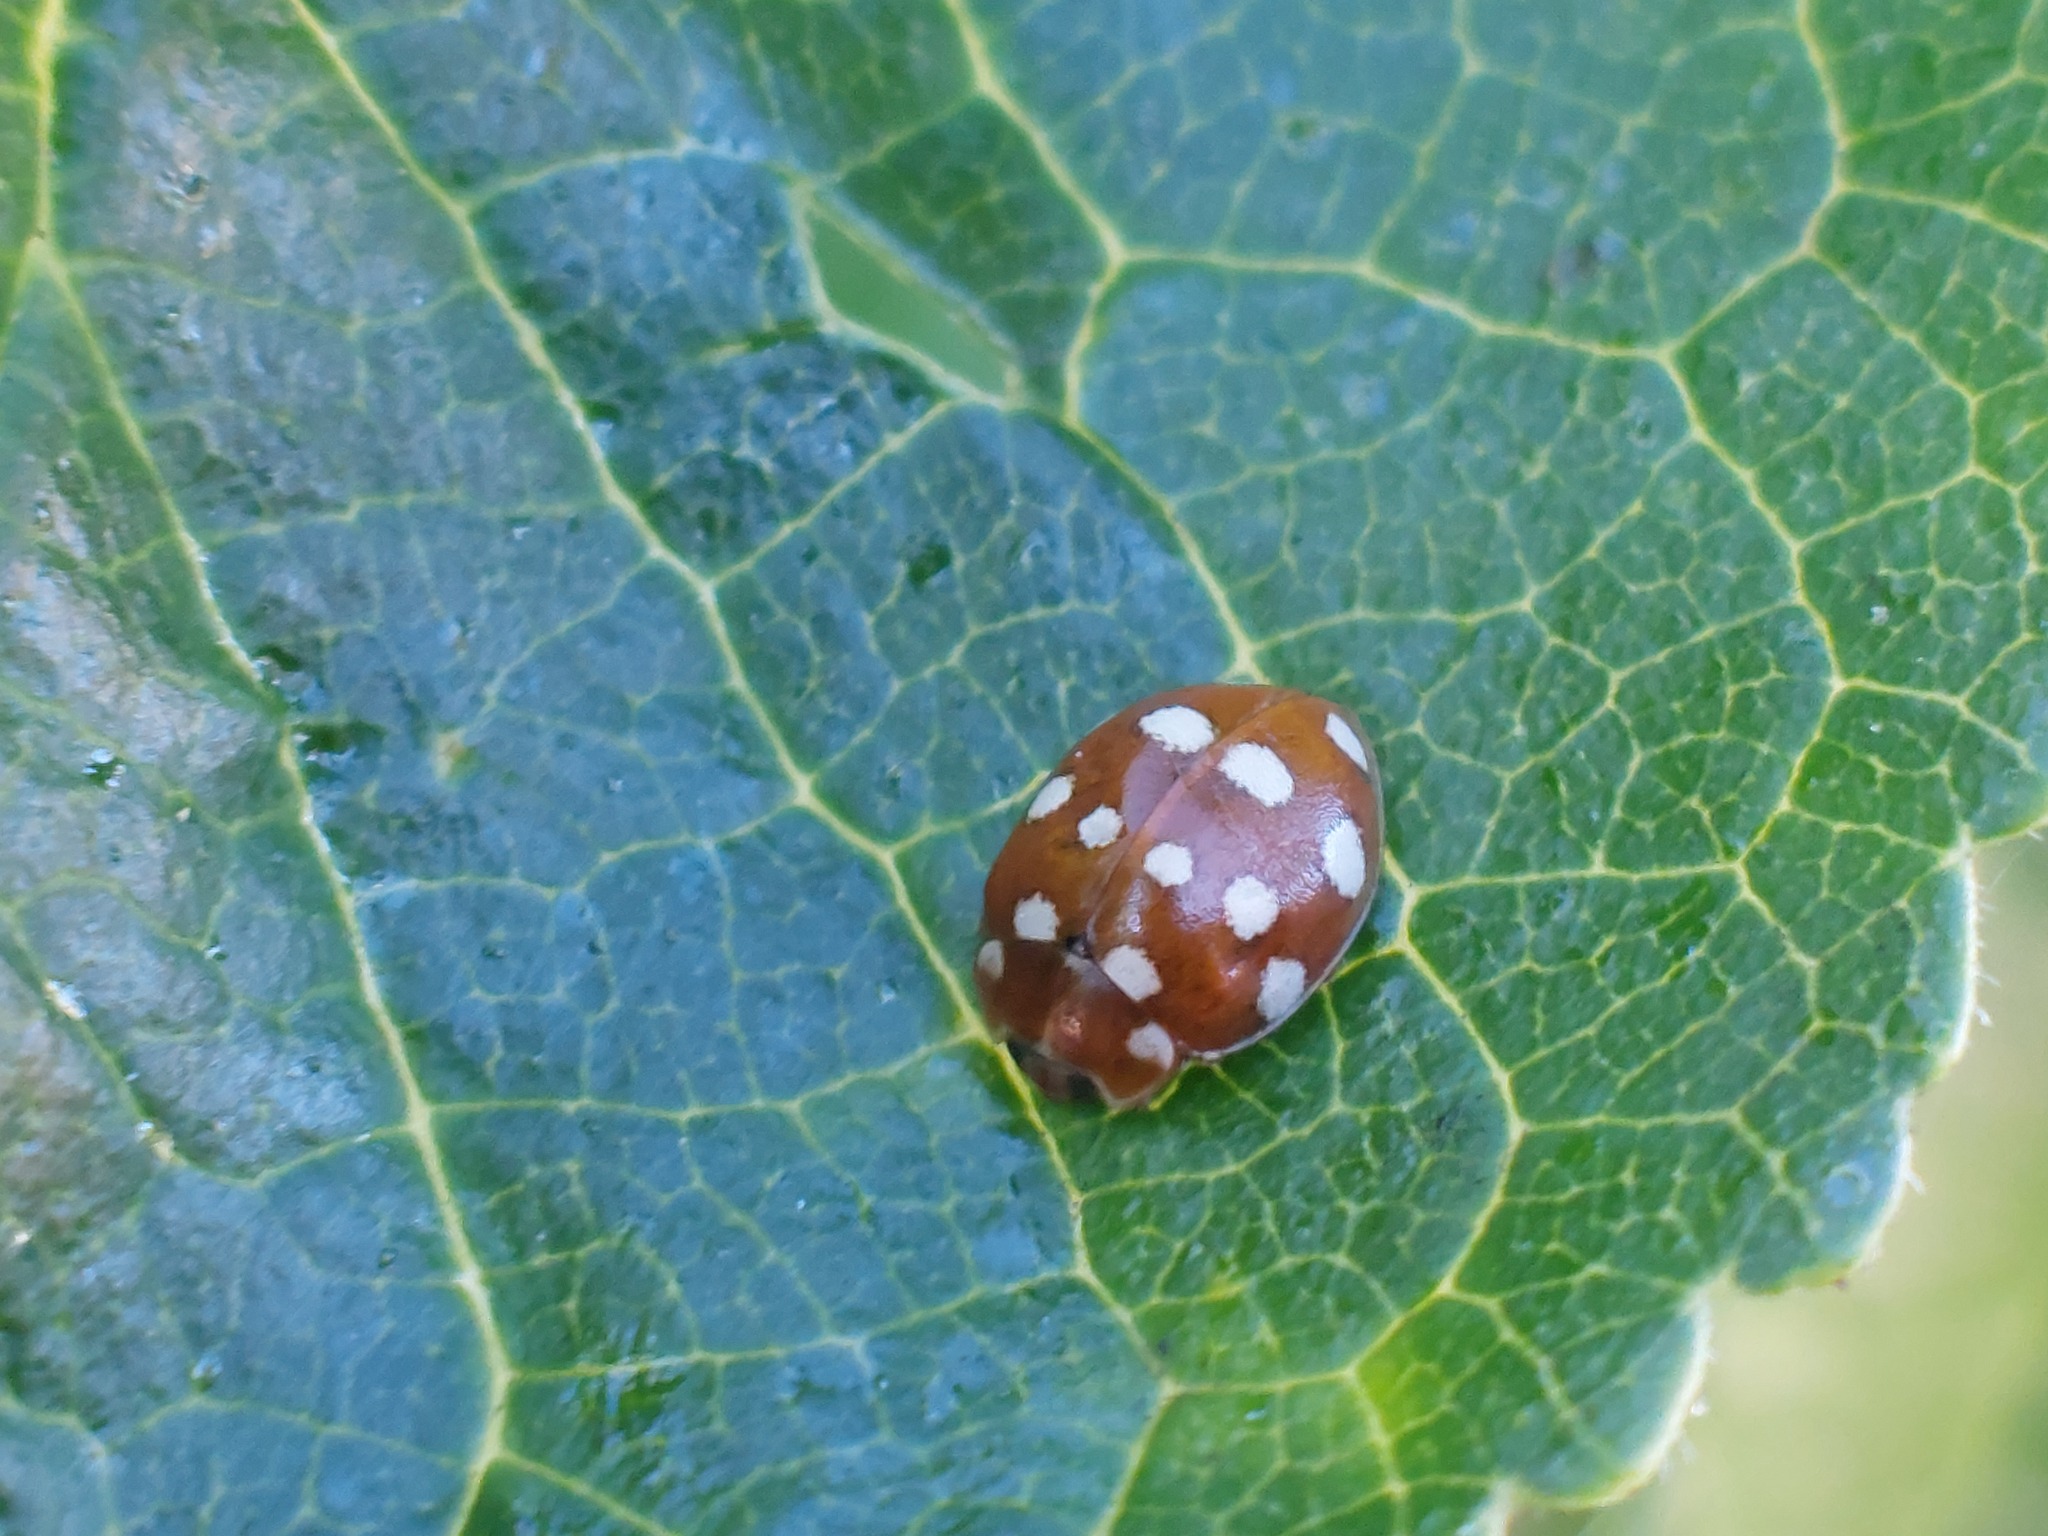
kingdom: Animalia
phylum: Arthropoda
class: Insecta
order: Coleoptera
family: Coccinellidae
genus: Calvia
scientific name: Calvia quatuordecimguttata
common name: Cream-spot ladybird
